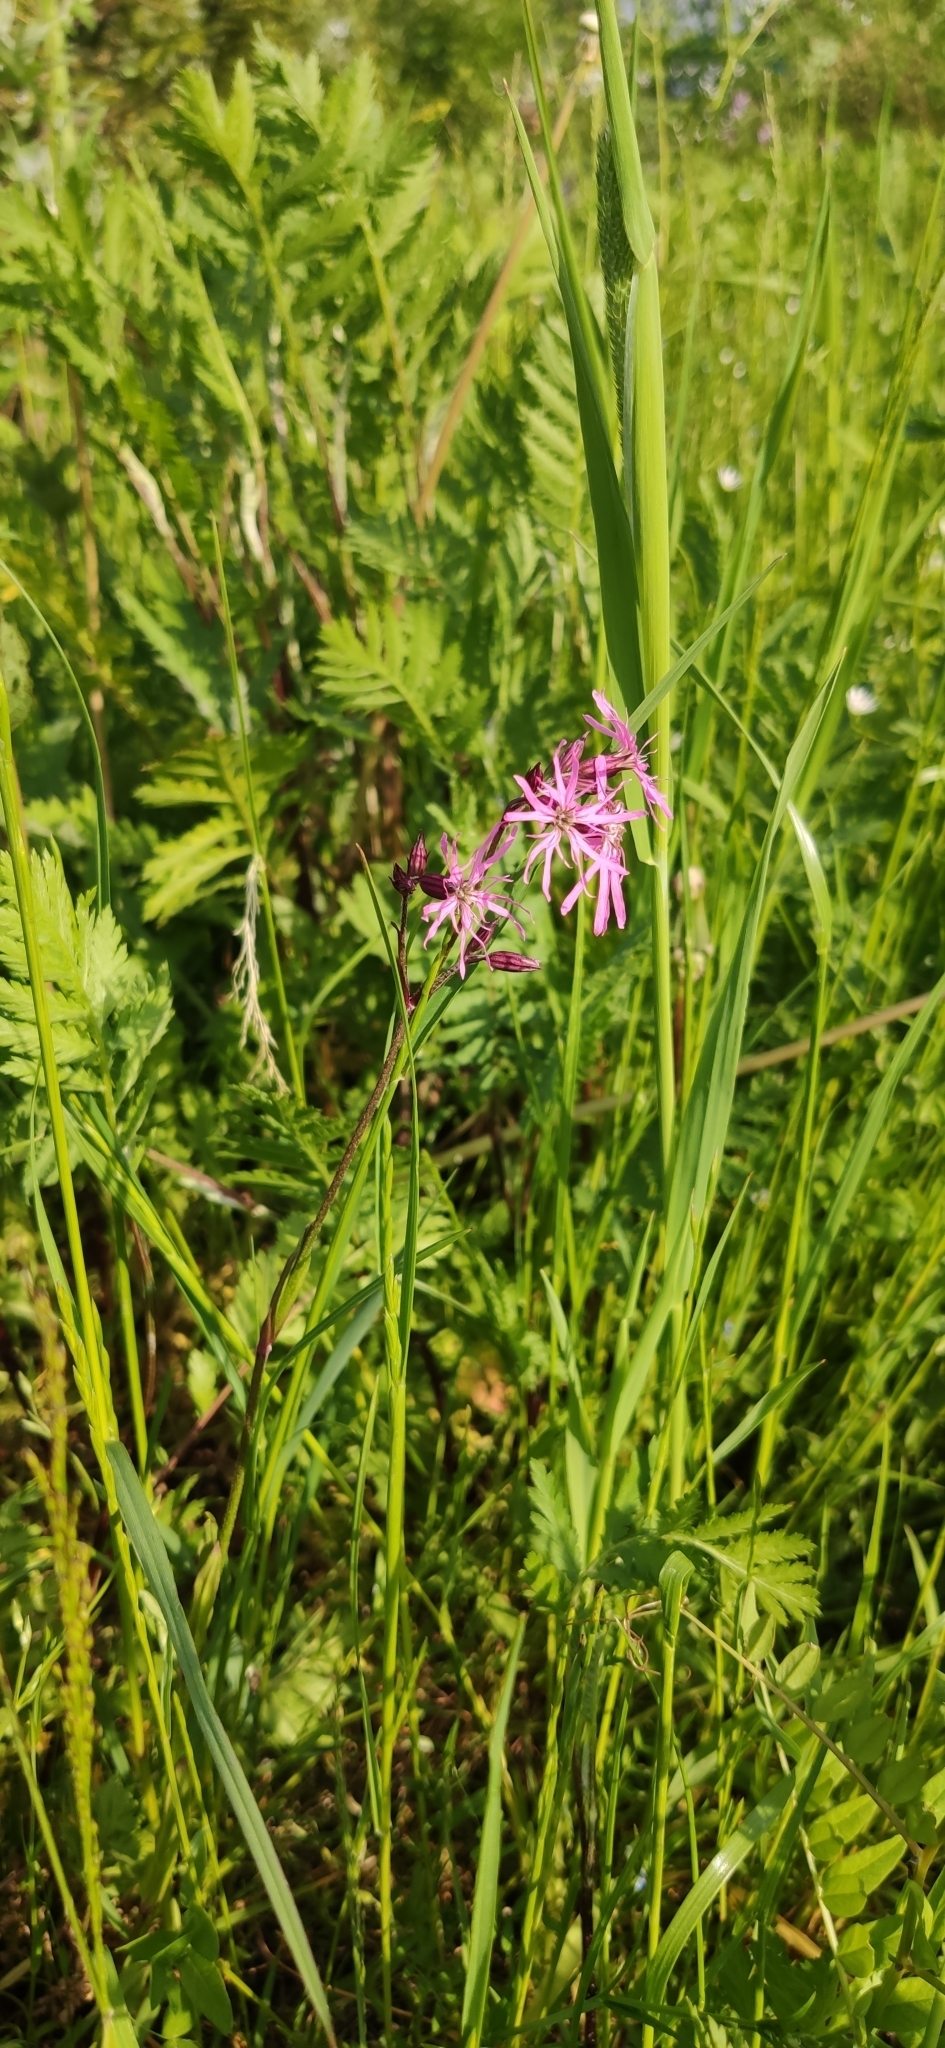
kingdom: Plantae
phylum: Tracheophyta
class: Magnoliopsida
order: Caryophyllales
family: Caryophyllaceae
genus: Silene
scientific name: Silene flos-cuculi
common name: Ragged-robin
